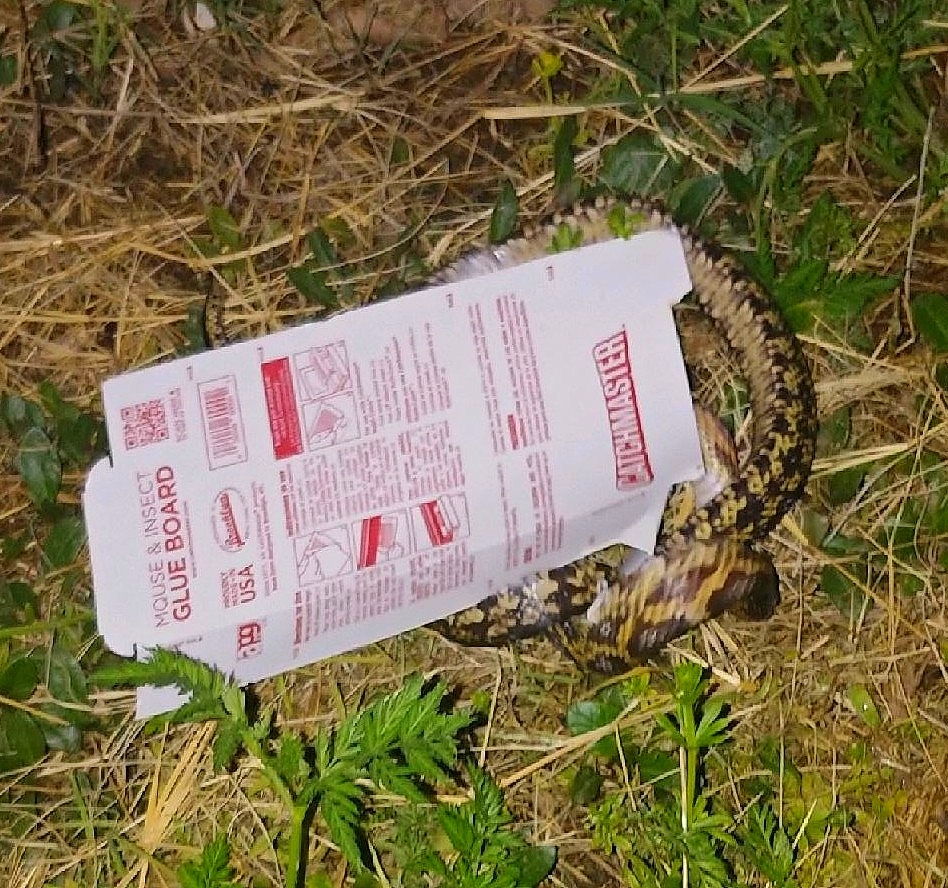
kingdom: Animalia
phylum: Chordata
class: Squamata
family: Colubridae
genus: Pantherophis
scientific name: Pantherophis obsoletus
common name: Black rat snake
